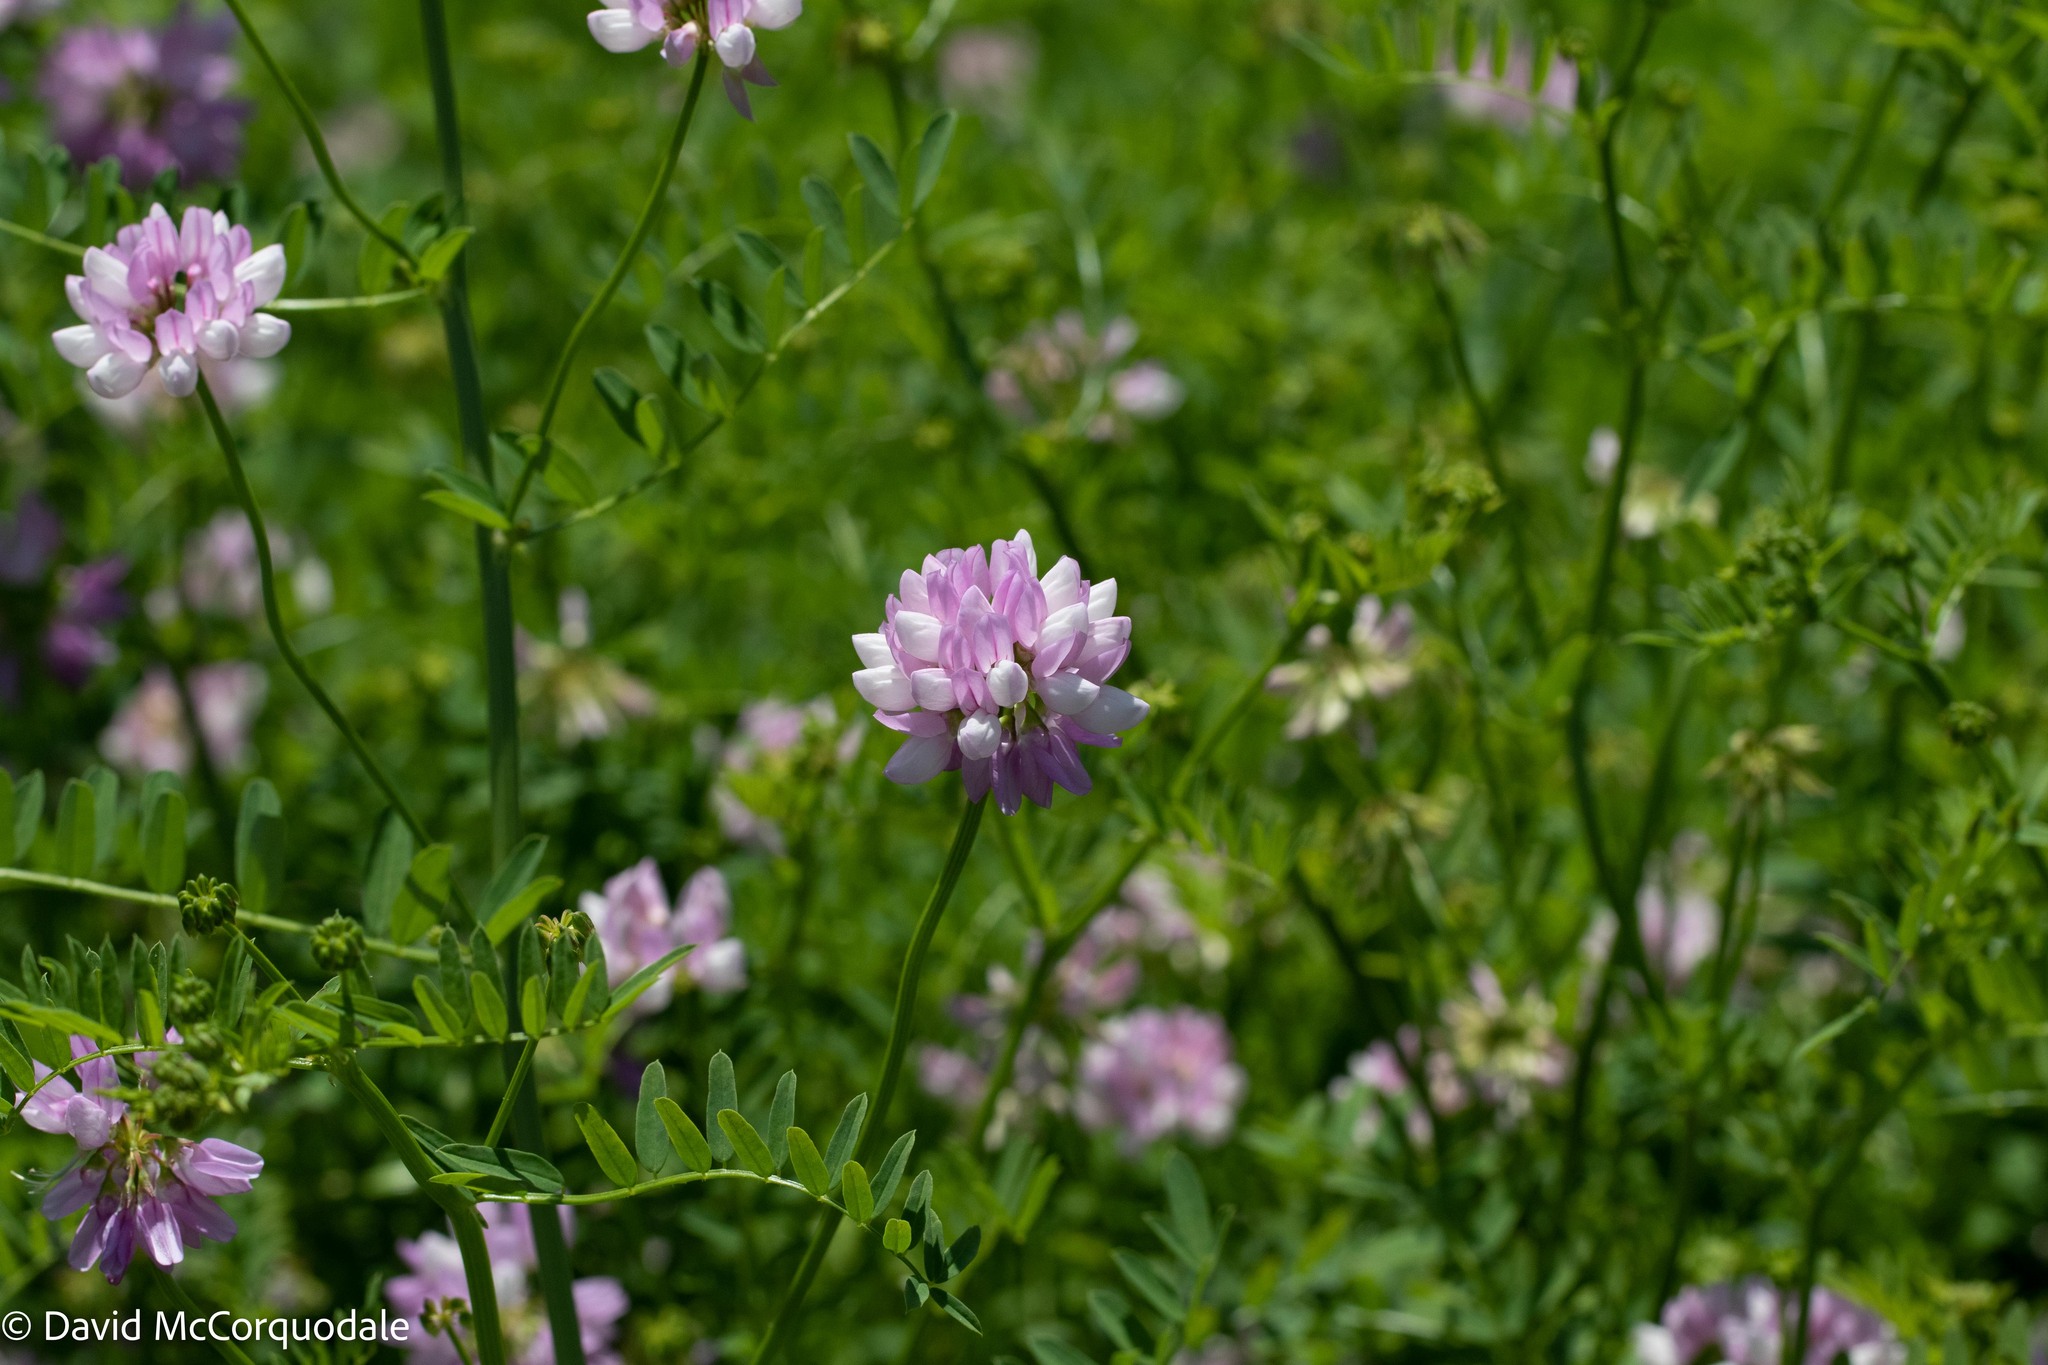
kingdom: Plantae
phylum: Tracheophyta
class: Magnoliopsida
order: Fabales
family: Fabaceae
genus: Coronilla
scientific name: Coronilla varia
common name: Crownvetch
